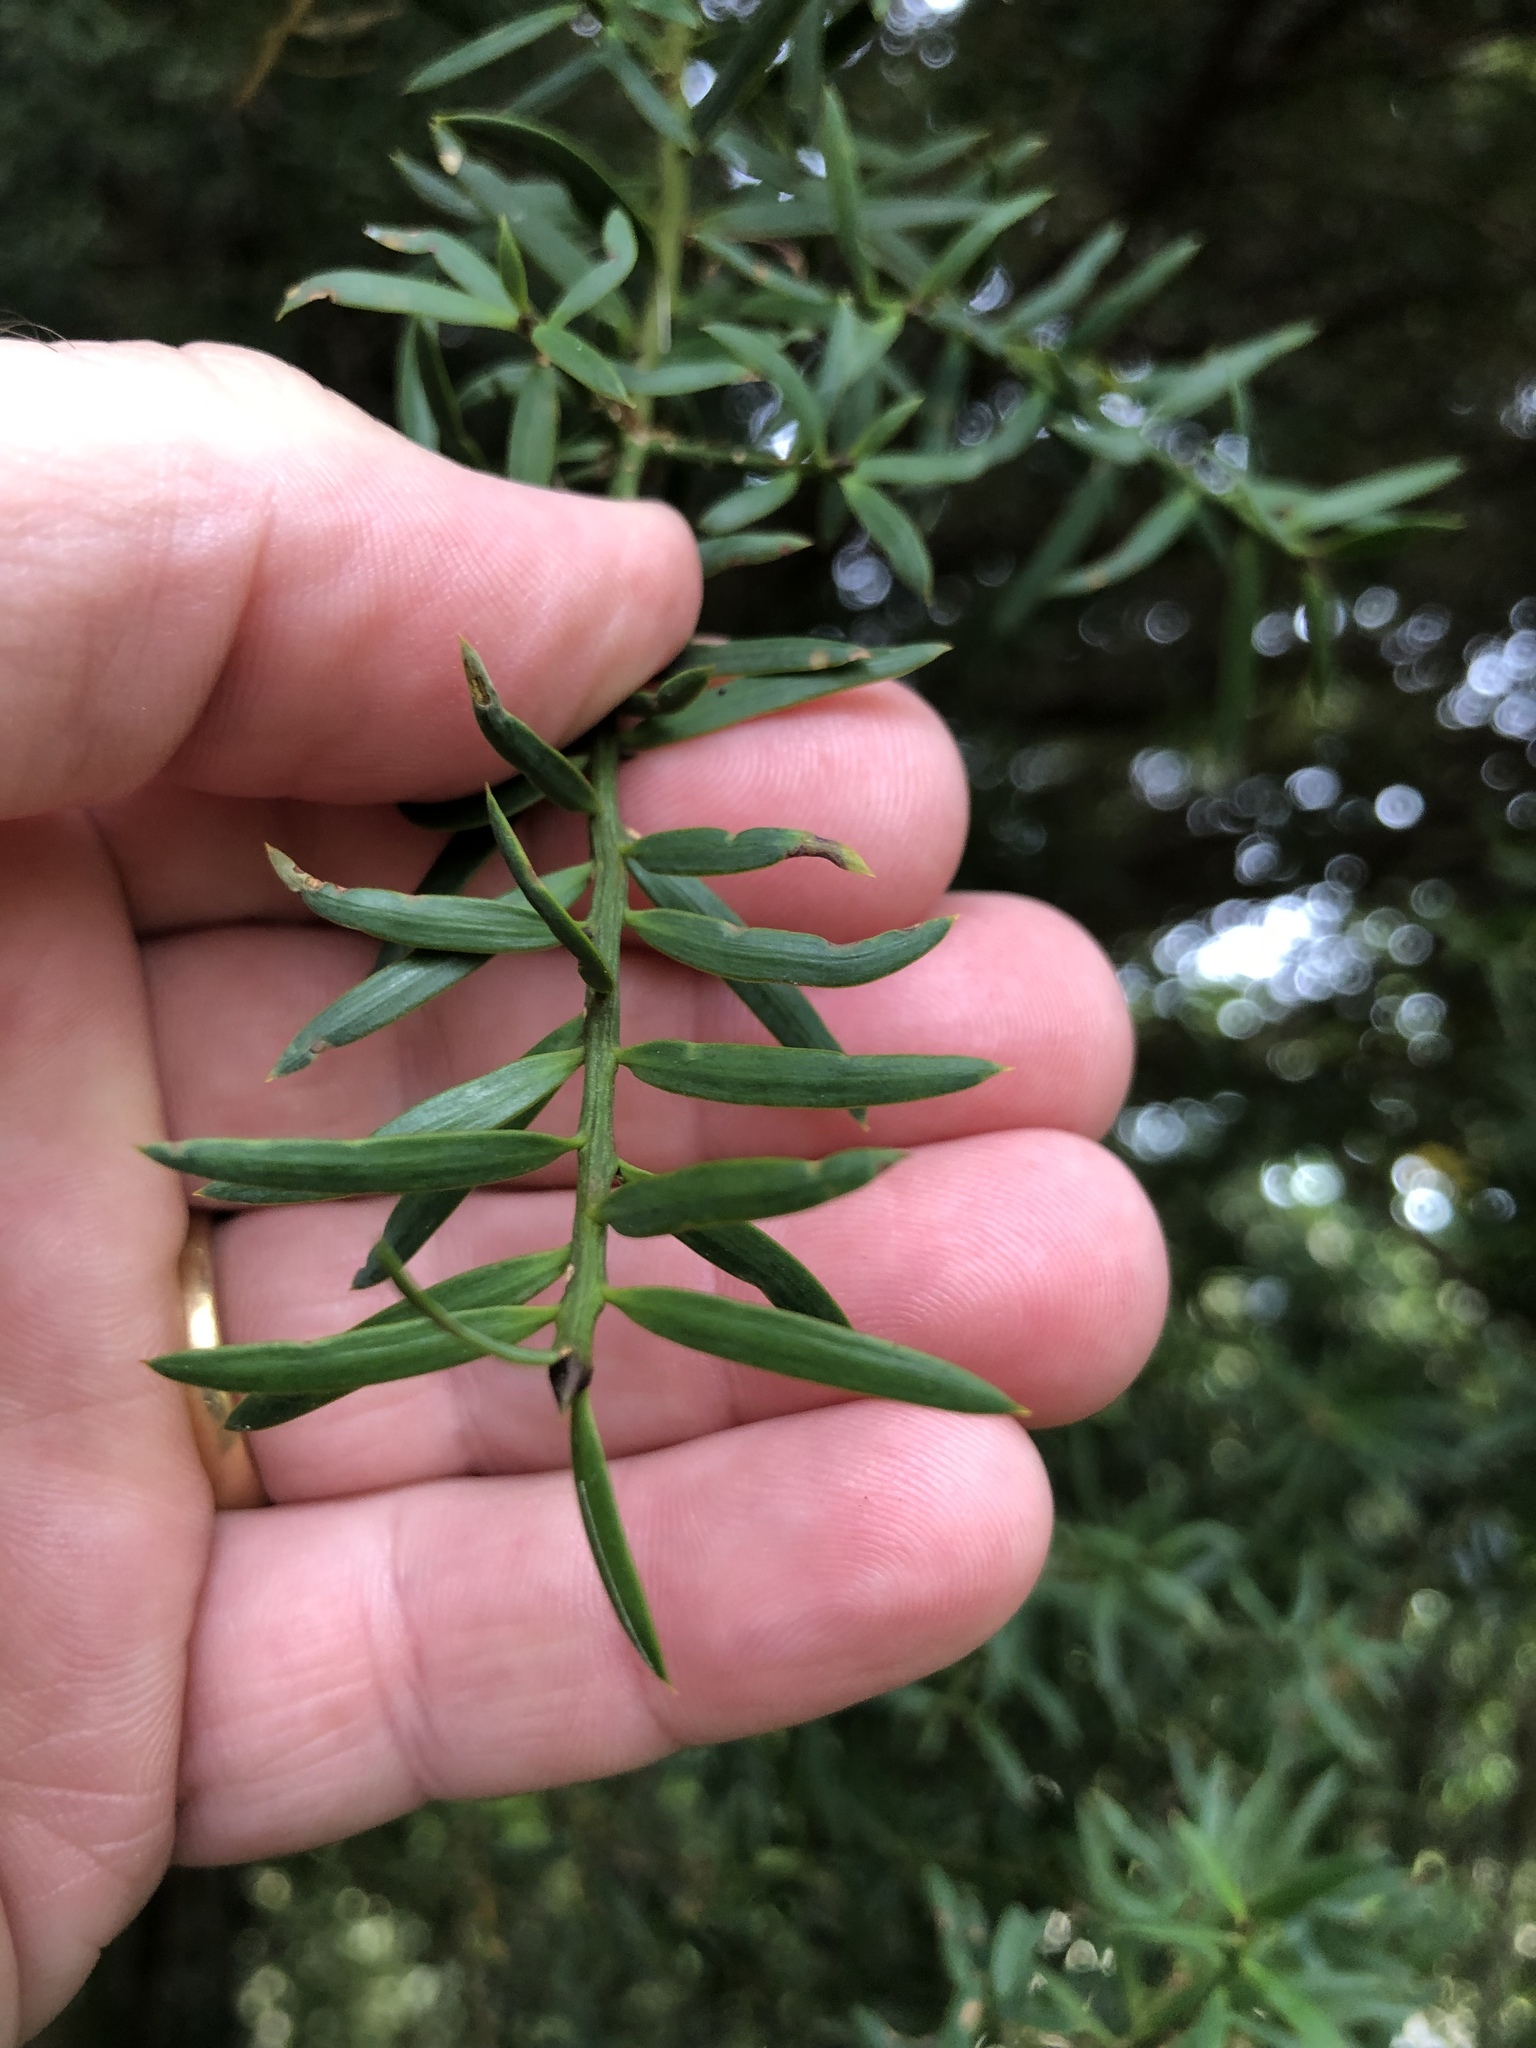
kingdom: Plantae
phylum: Tracheophyta
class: Pinopsida
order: Pinales
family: Podocarpaceae
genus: Podocarpus
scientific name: Podocarpus totara
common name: Totara
